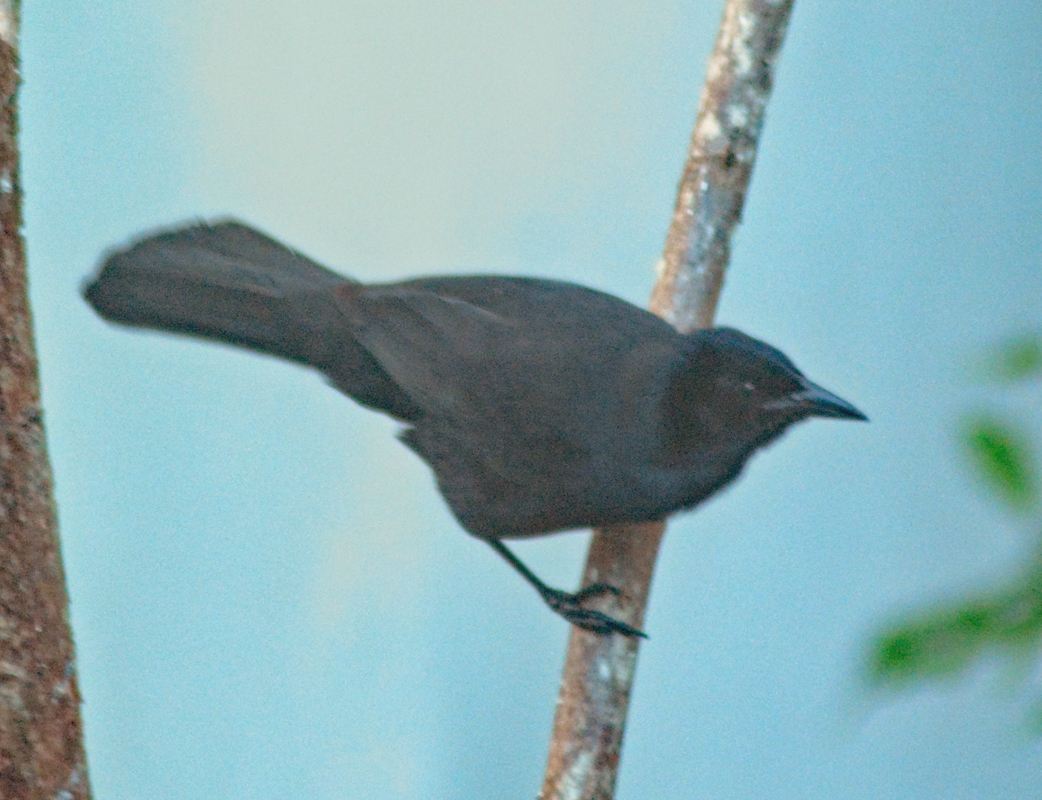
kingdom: Animalia
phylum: Chordata
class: Aves
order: Passeriformes
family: Icteridae
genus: Dives
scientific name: Dives dives
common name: Melodious blackbird
